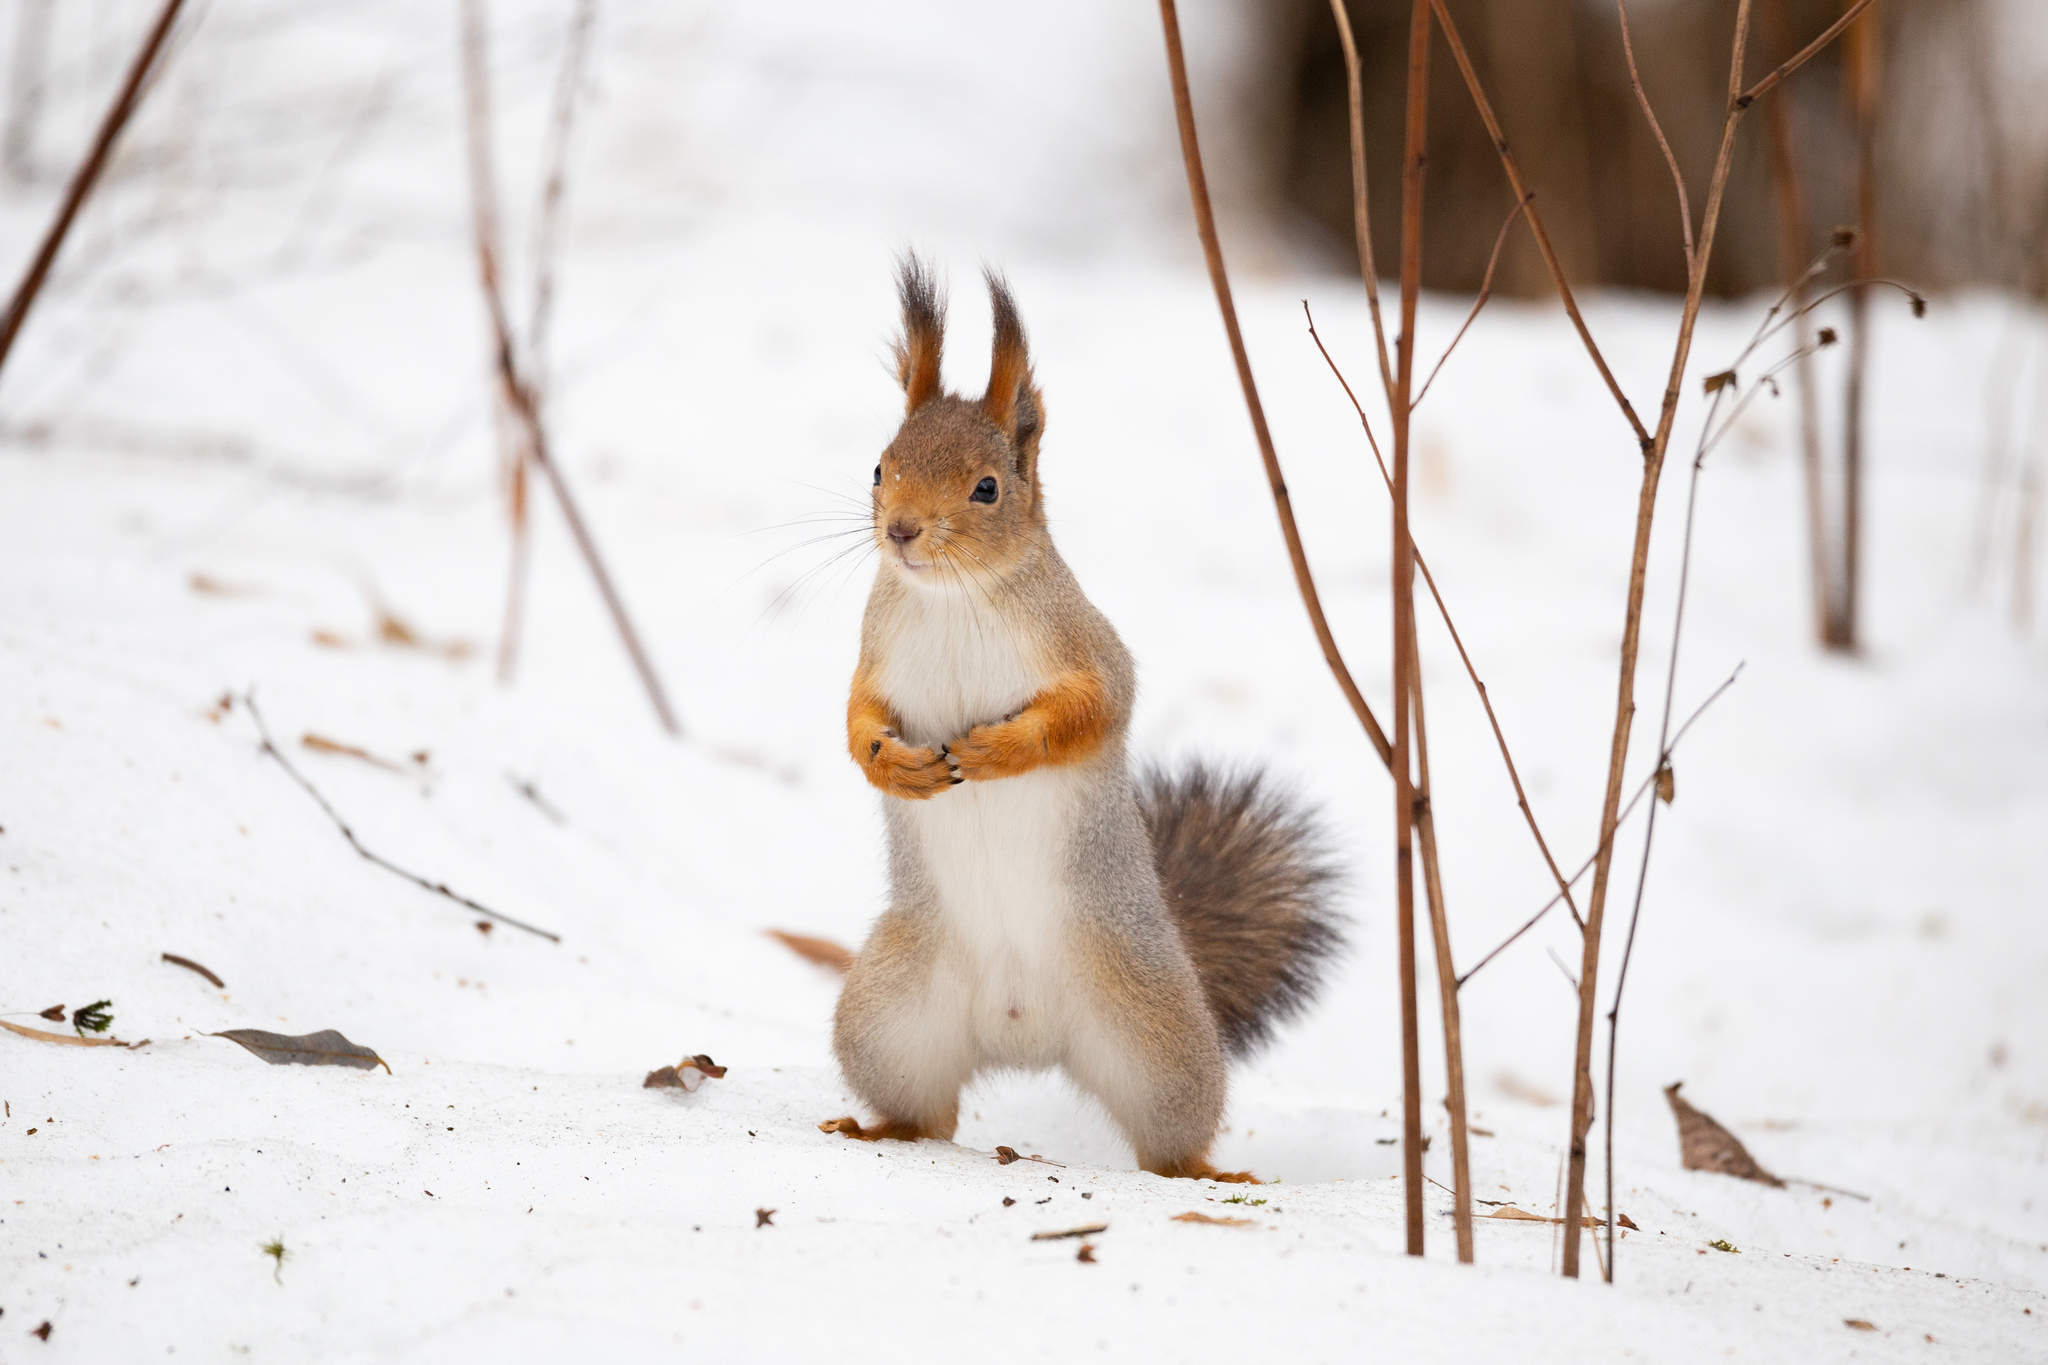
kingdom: Animalia
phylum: Chordata
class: Mammalia
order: Rodentia
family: Sciuridae
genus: Sciurus
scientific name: Sciurus vulgaris
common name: Eurasian red squirrel
